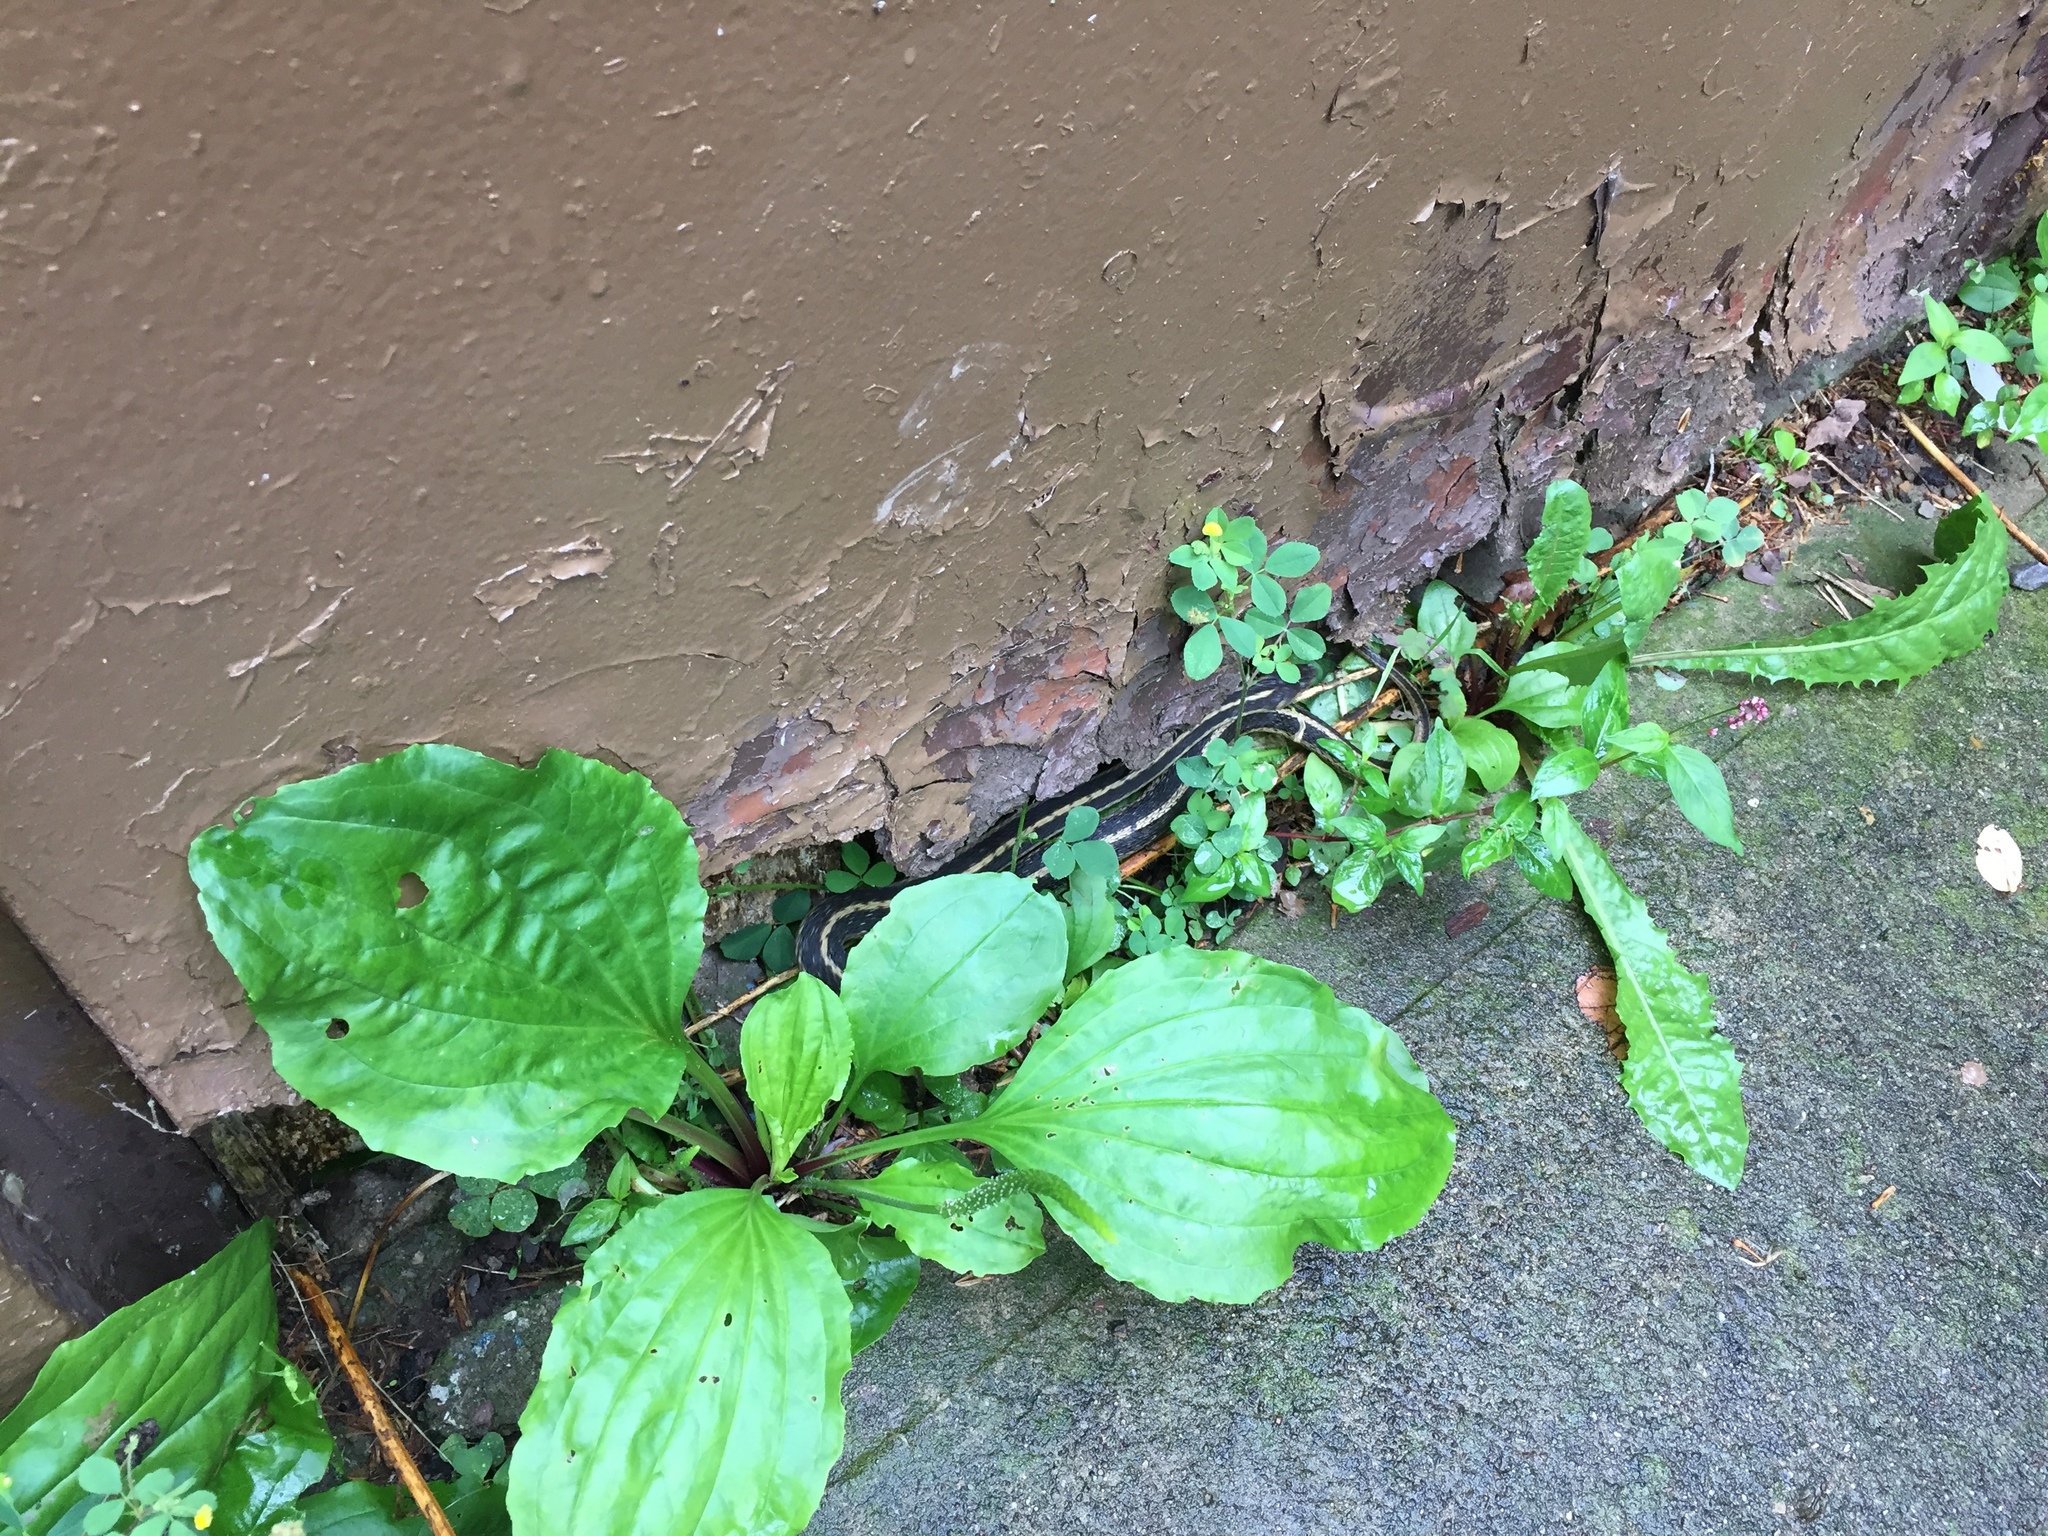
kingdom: Animalia
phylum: Chordata
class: Squamata
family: Colubridae
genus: Thamnophis
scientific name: Thamnophis sirtalis
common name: Common garter snake
